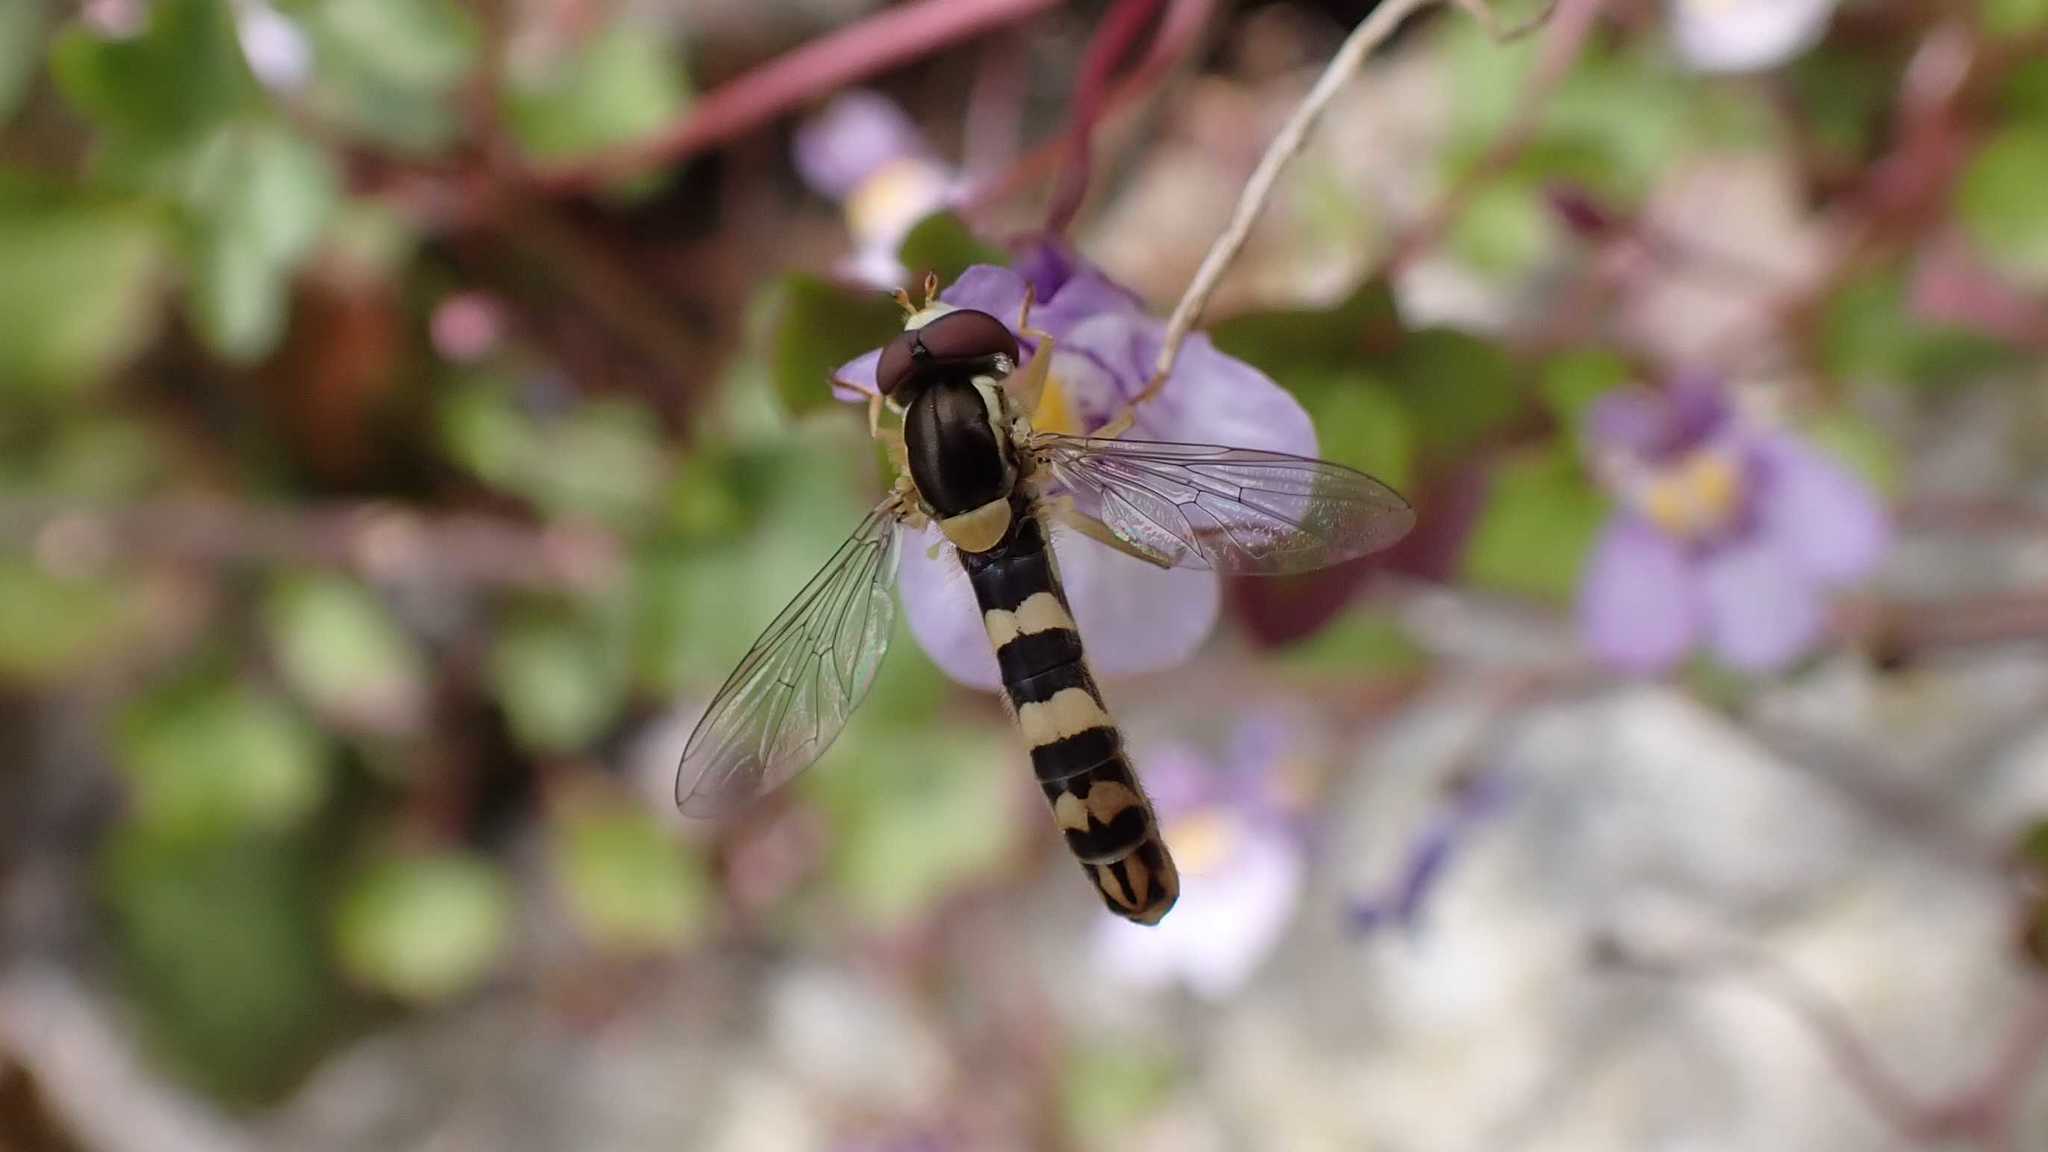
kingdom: Animalia
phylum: Arthropoda
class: Insecta
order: Diptera
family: Syrphidae
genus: Sphaerophoria
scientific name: Sphaerophoria scripta
